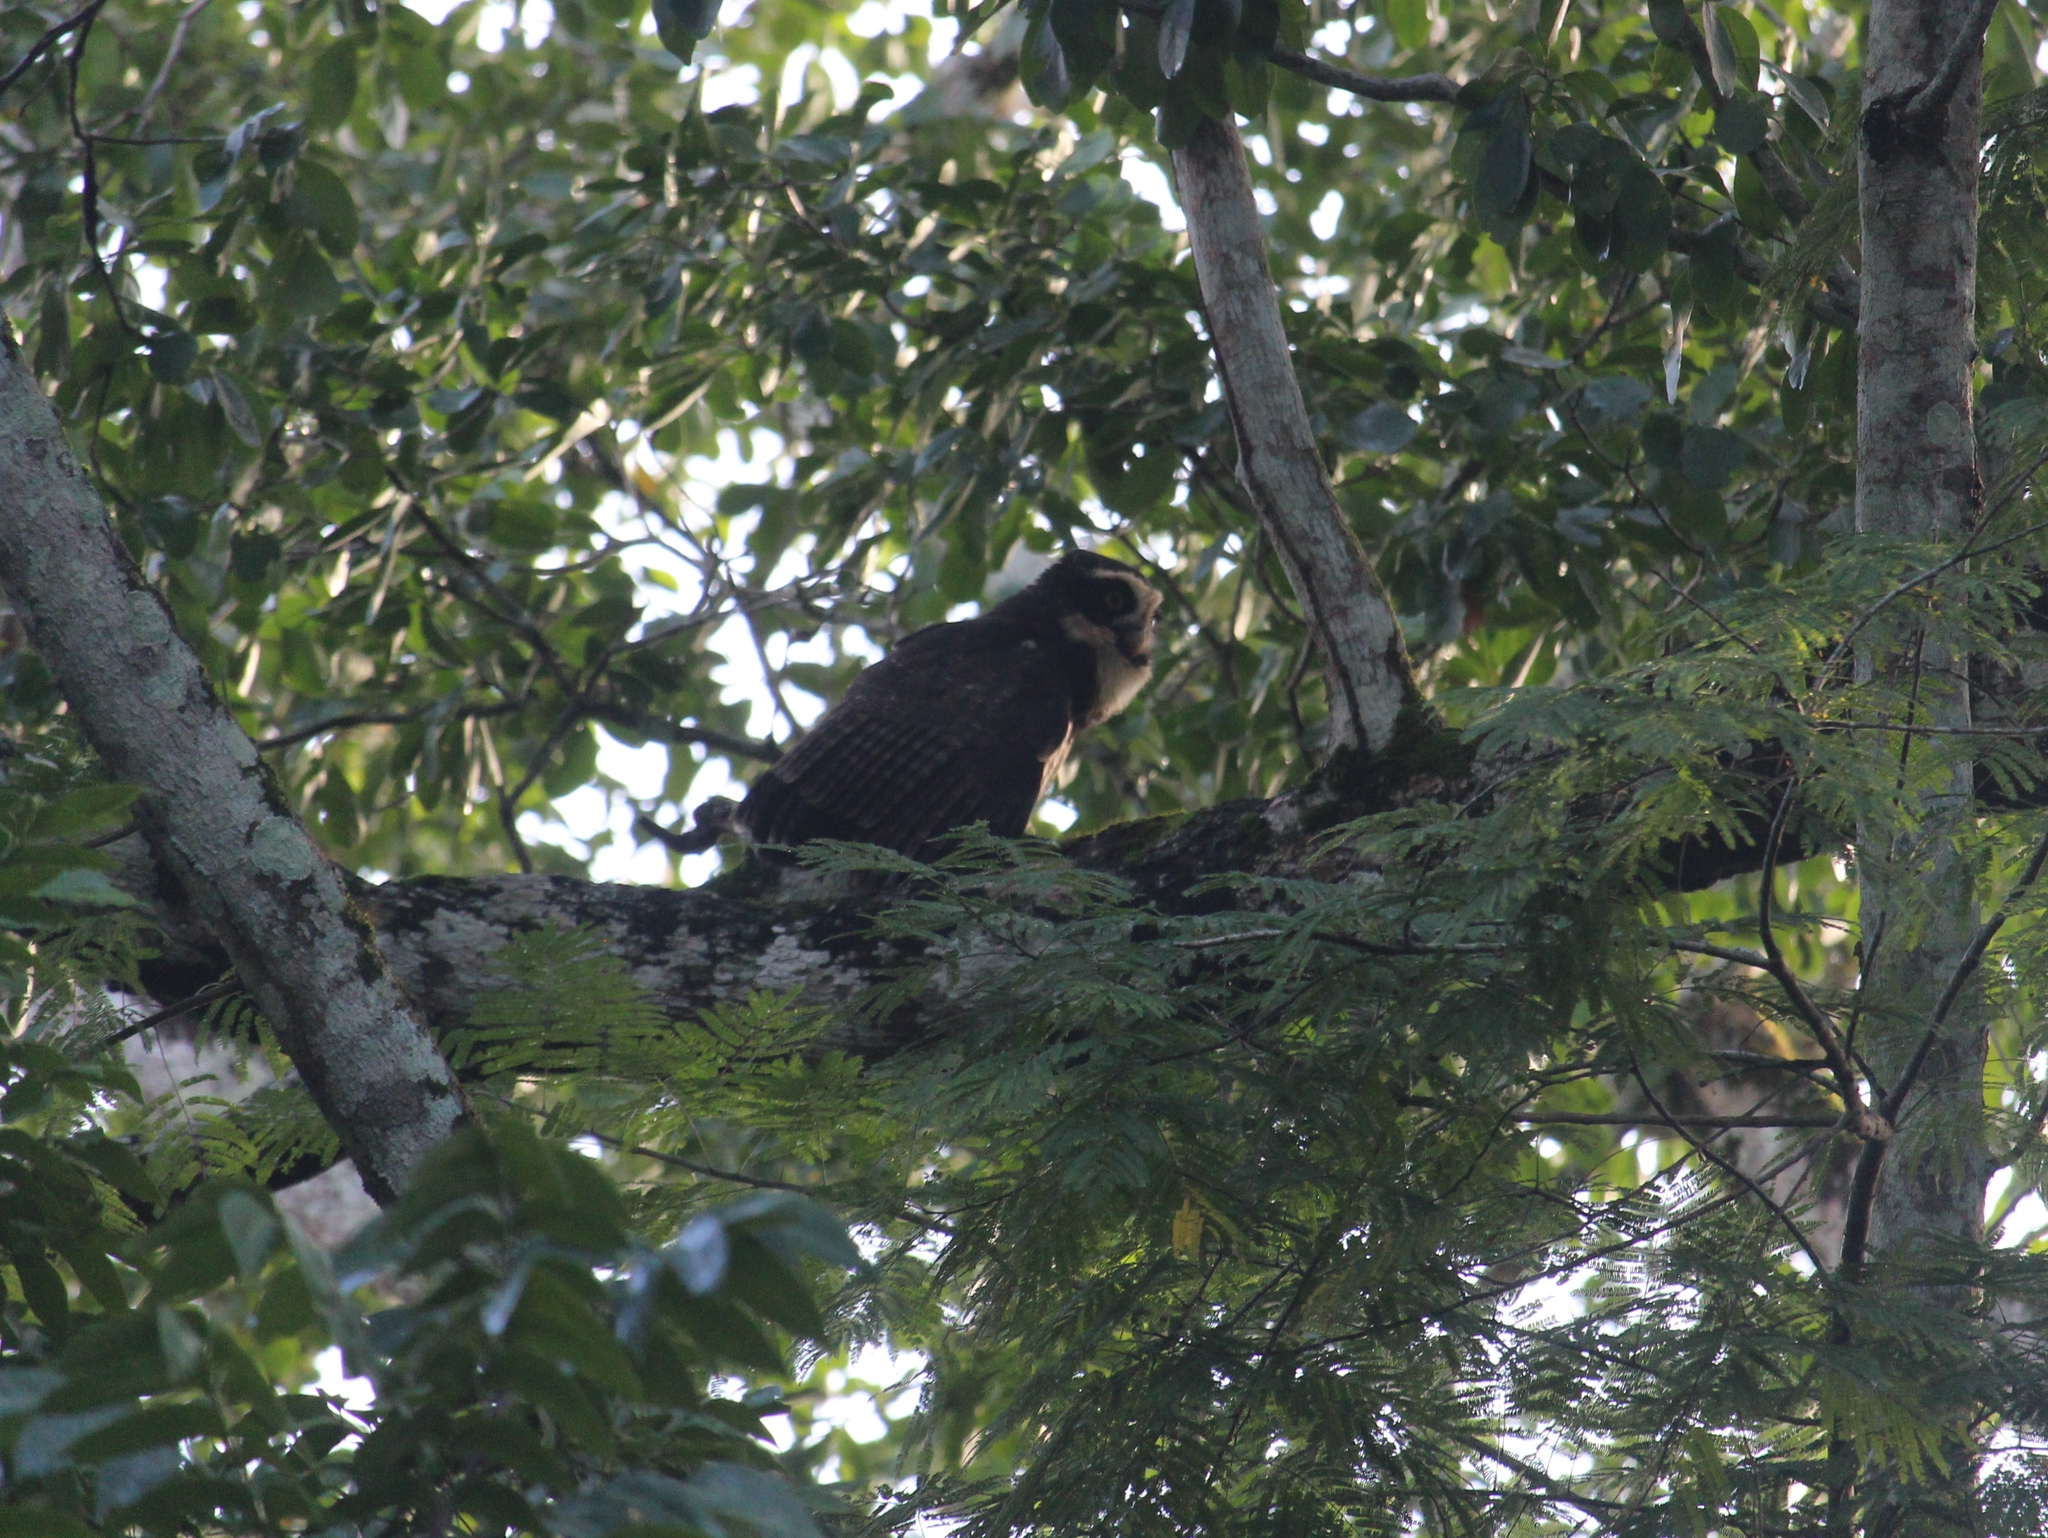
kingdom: Animalia
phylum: Chordata
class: Aves
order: Strigiformes
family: Strigidae
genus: Pulsatrix
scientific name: Pulsatrix perspicillata
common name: Spectacled owl
